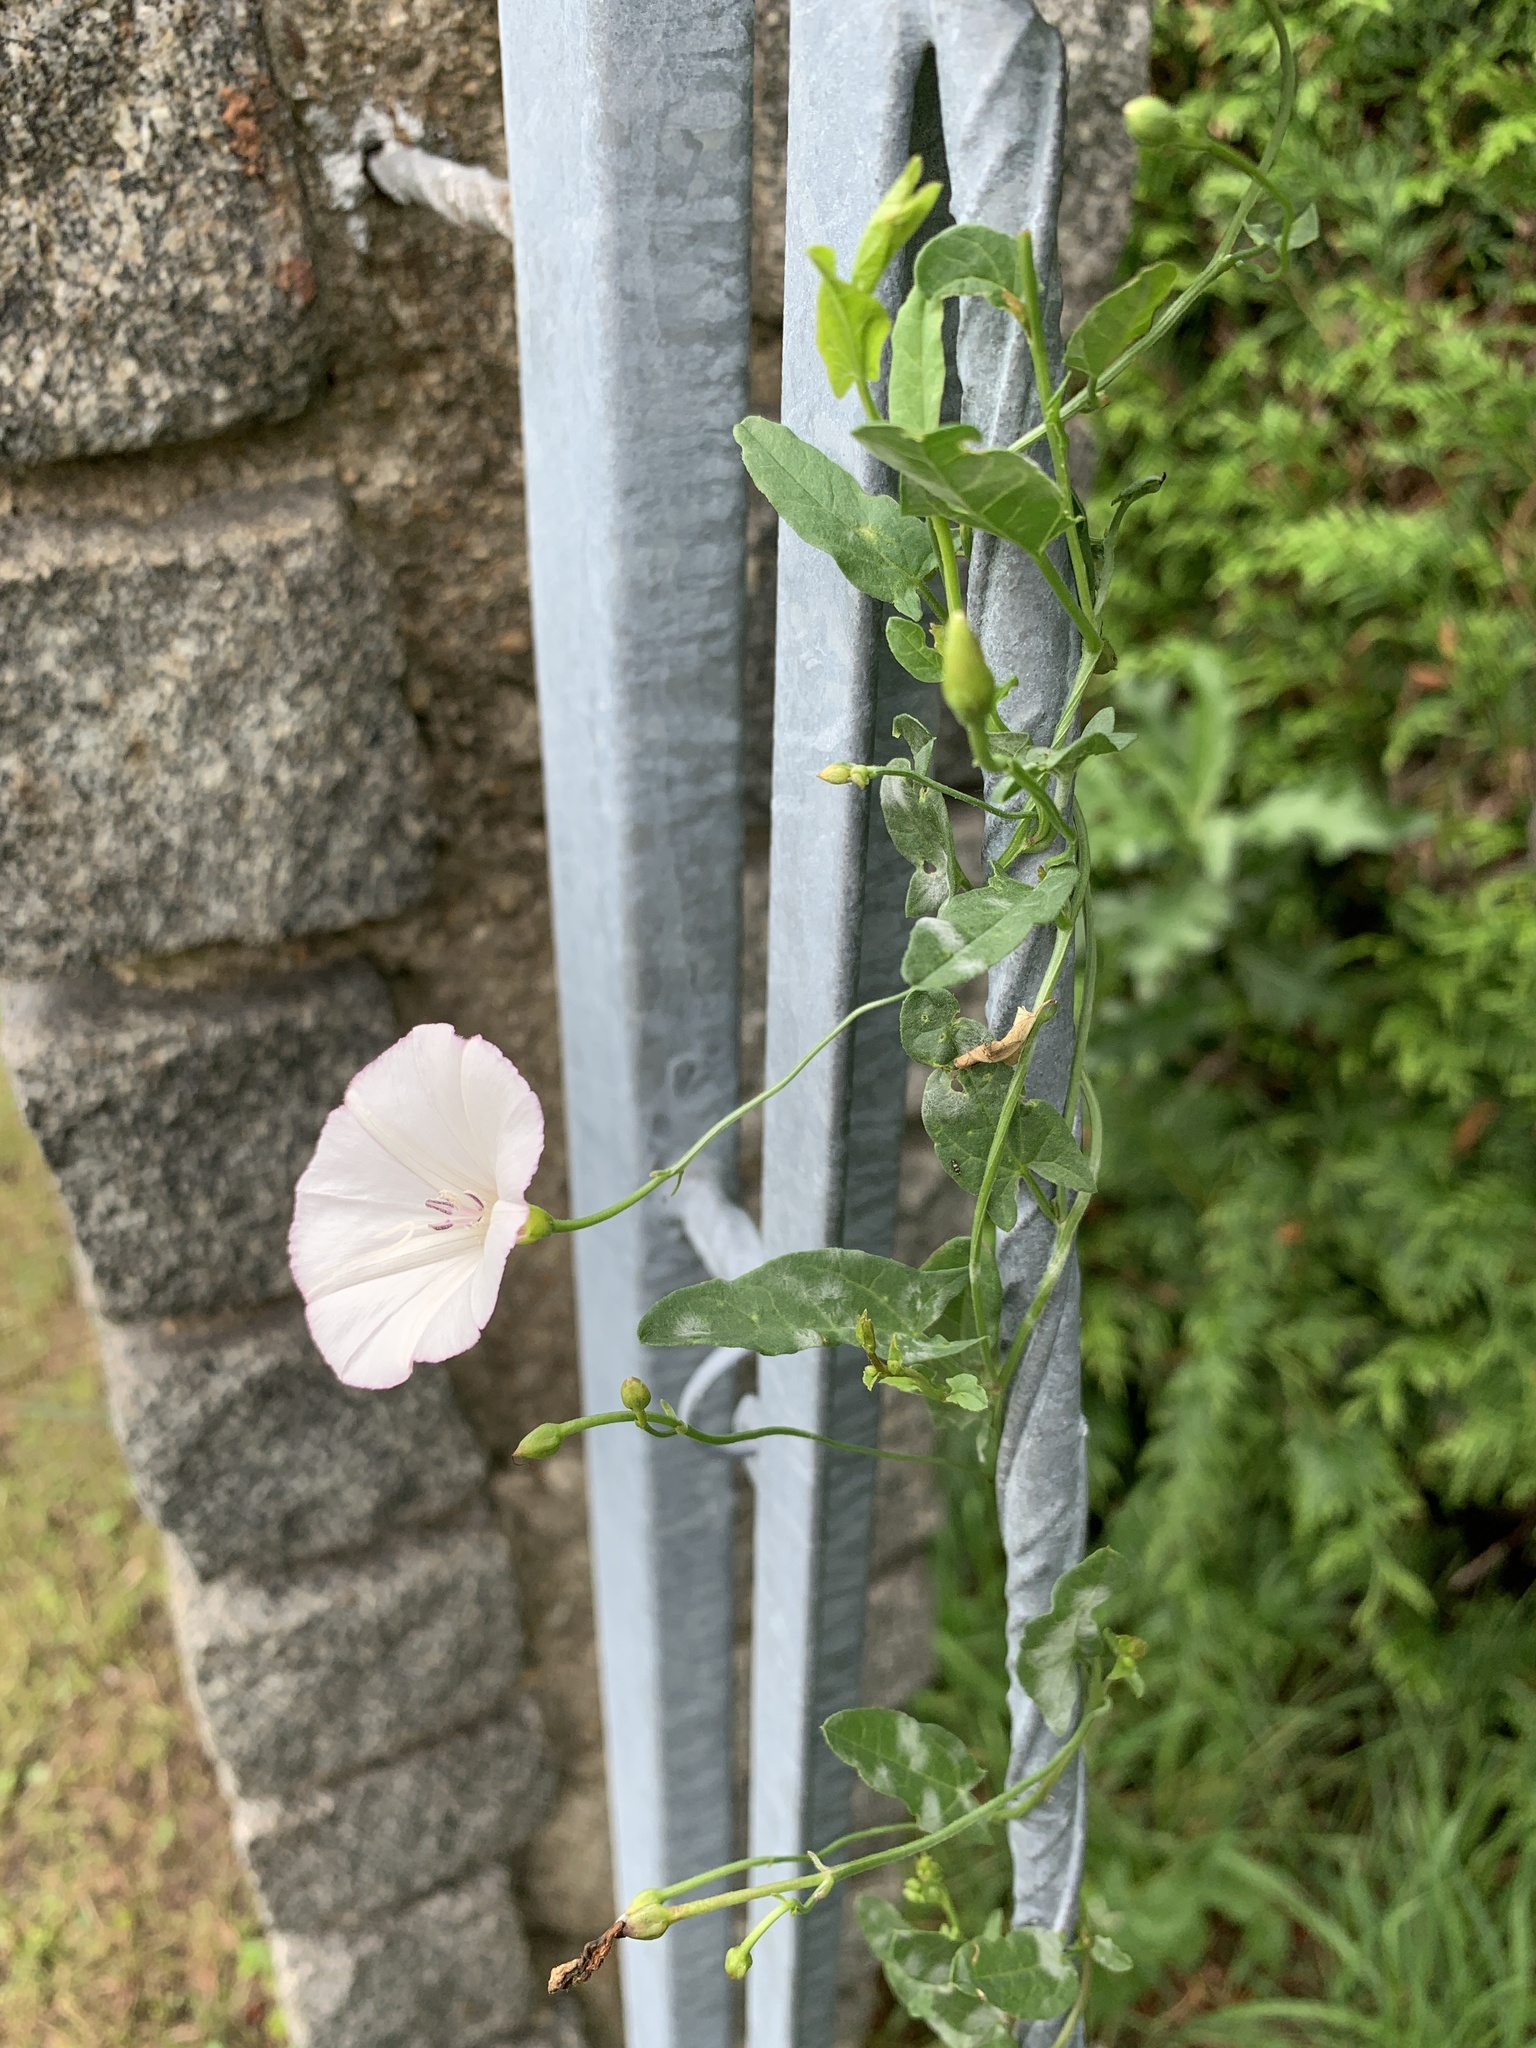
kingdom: Plantae
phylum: Tracheophyta
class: Magnoliopsida
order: Solanales
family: Convolvulaceae
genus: Convolvulus
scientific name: Convolvulus arvensis
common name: Field bindweed
